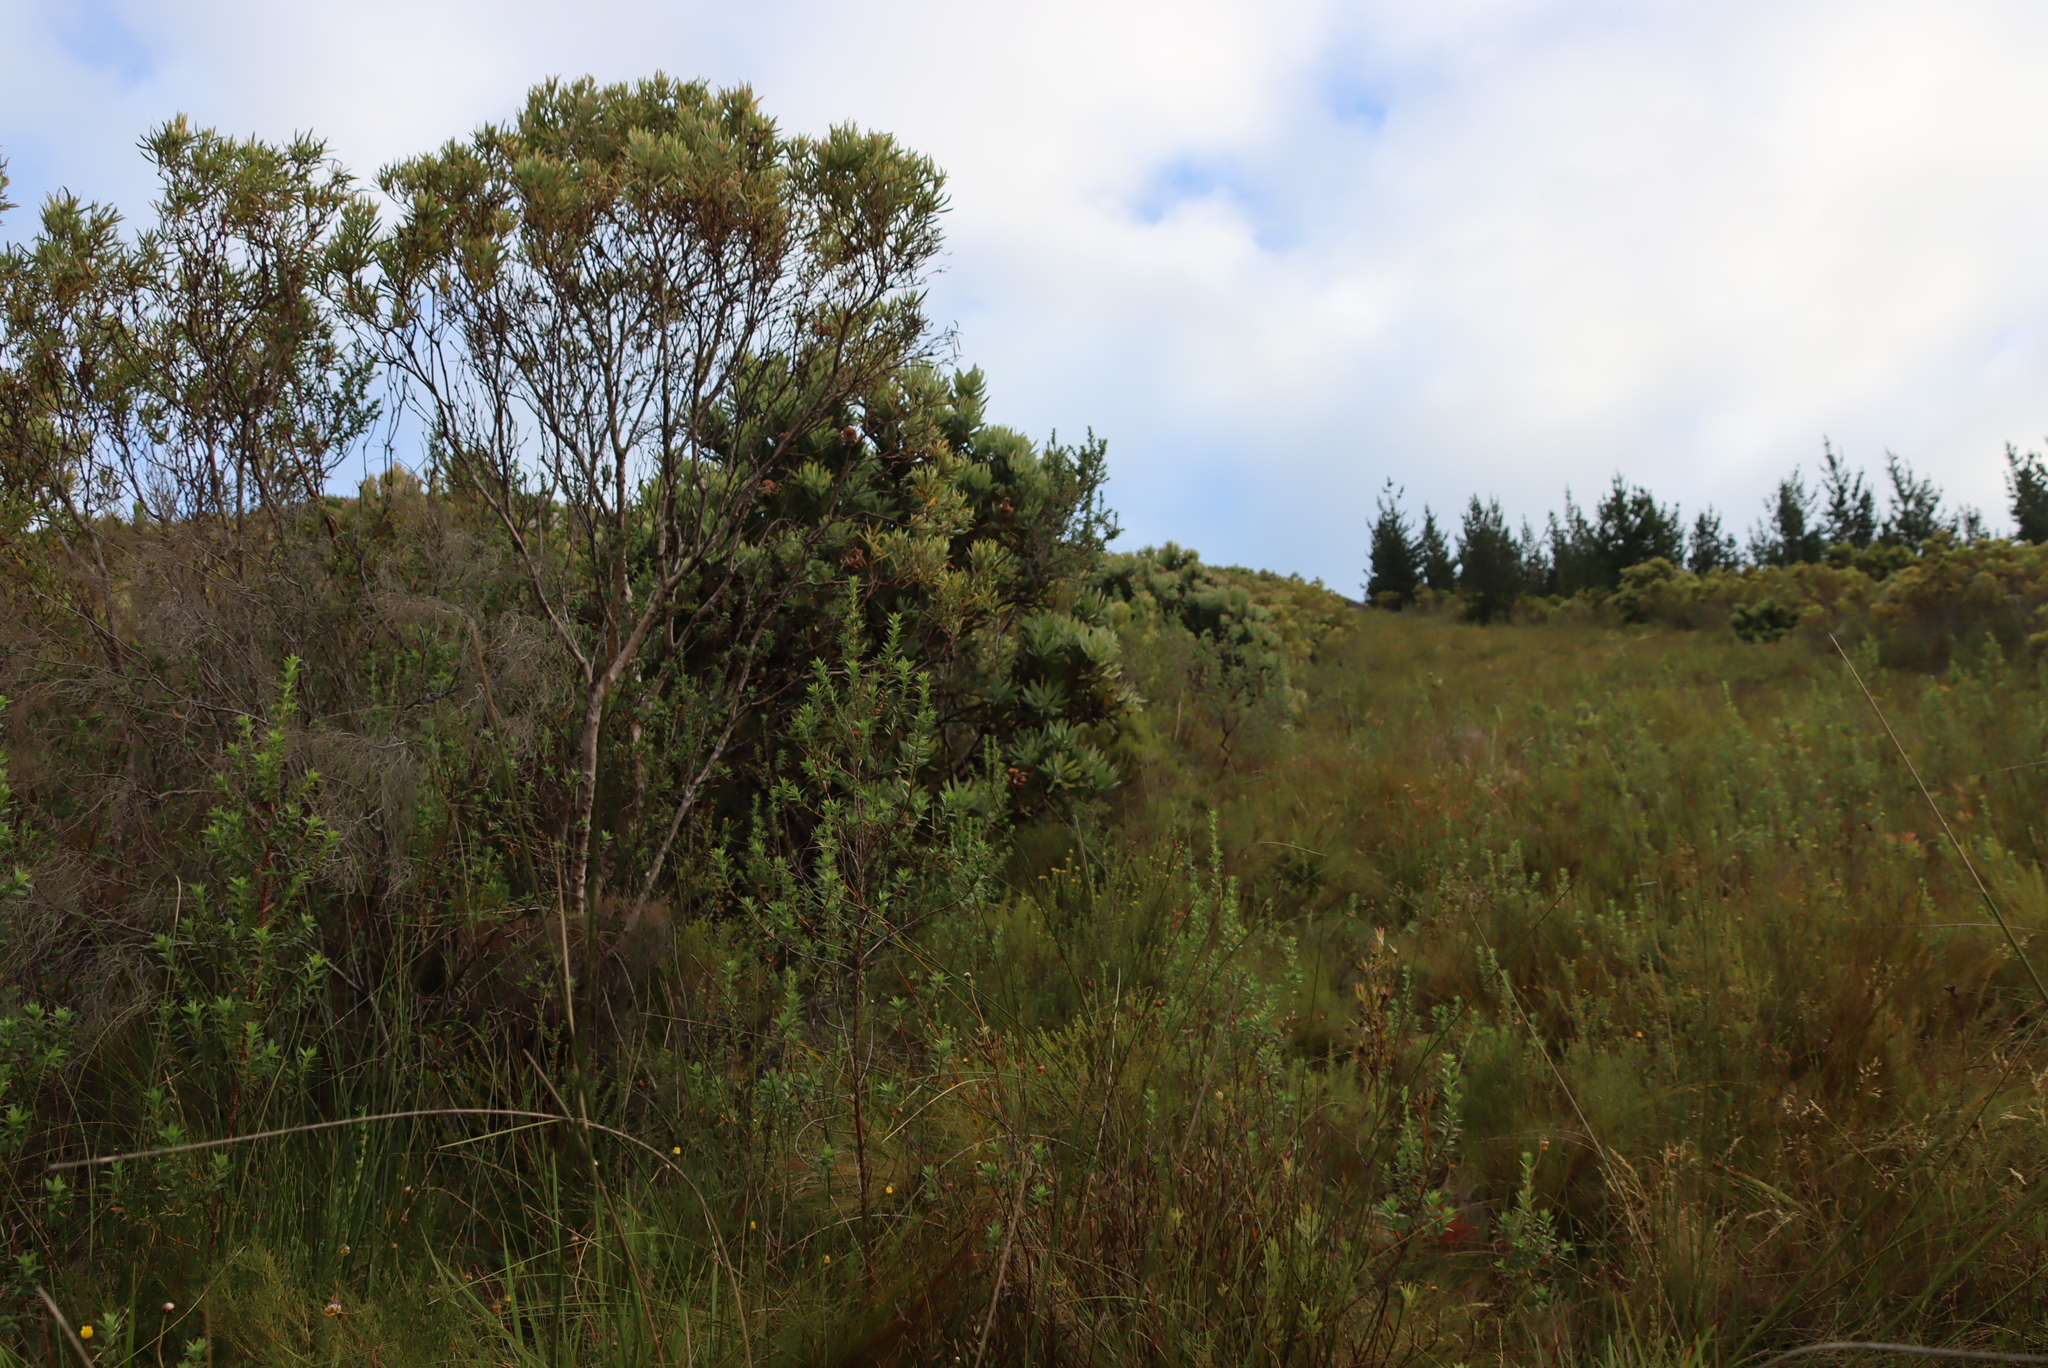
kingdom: Plantae
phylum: Tracheophyta
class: Magnoliopsida
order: Proteales
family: Proteaceae
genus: Protea
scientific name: Protea neriifolia
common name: Blue sugarbush
